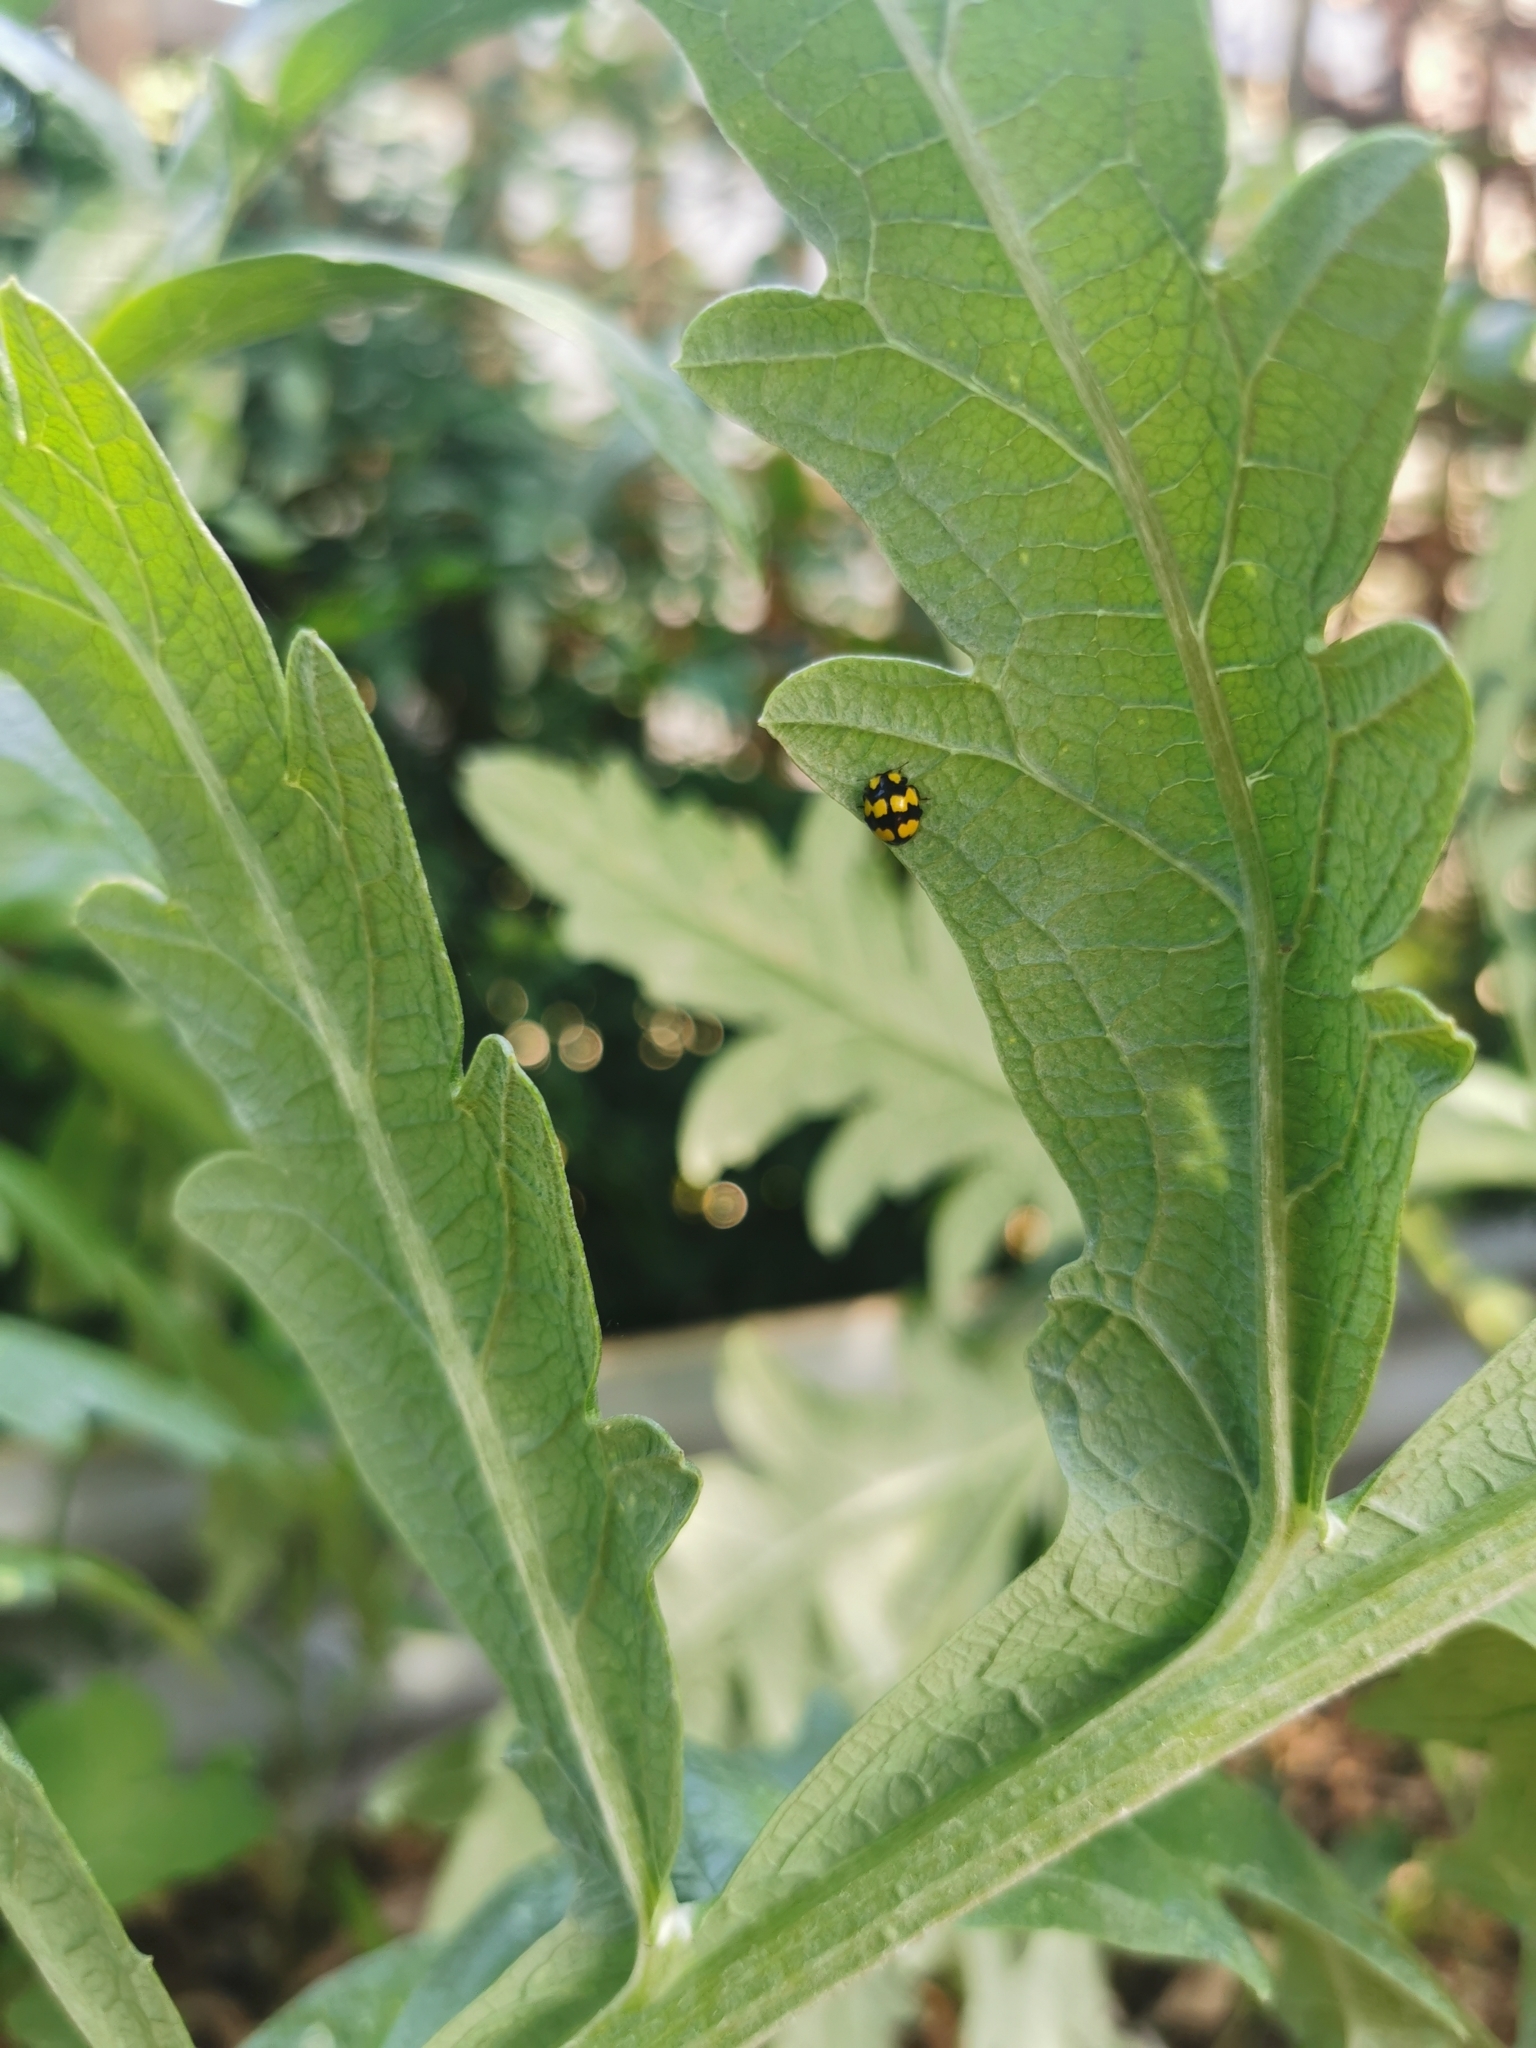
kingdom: Animalia
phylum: Arthropoda
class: Insecta
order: Coleoptera
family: Coccinellidae
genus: Illeis
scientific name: Illeis galbula
